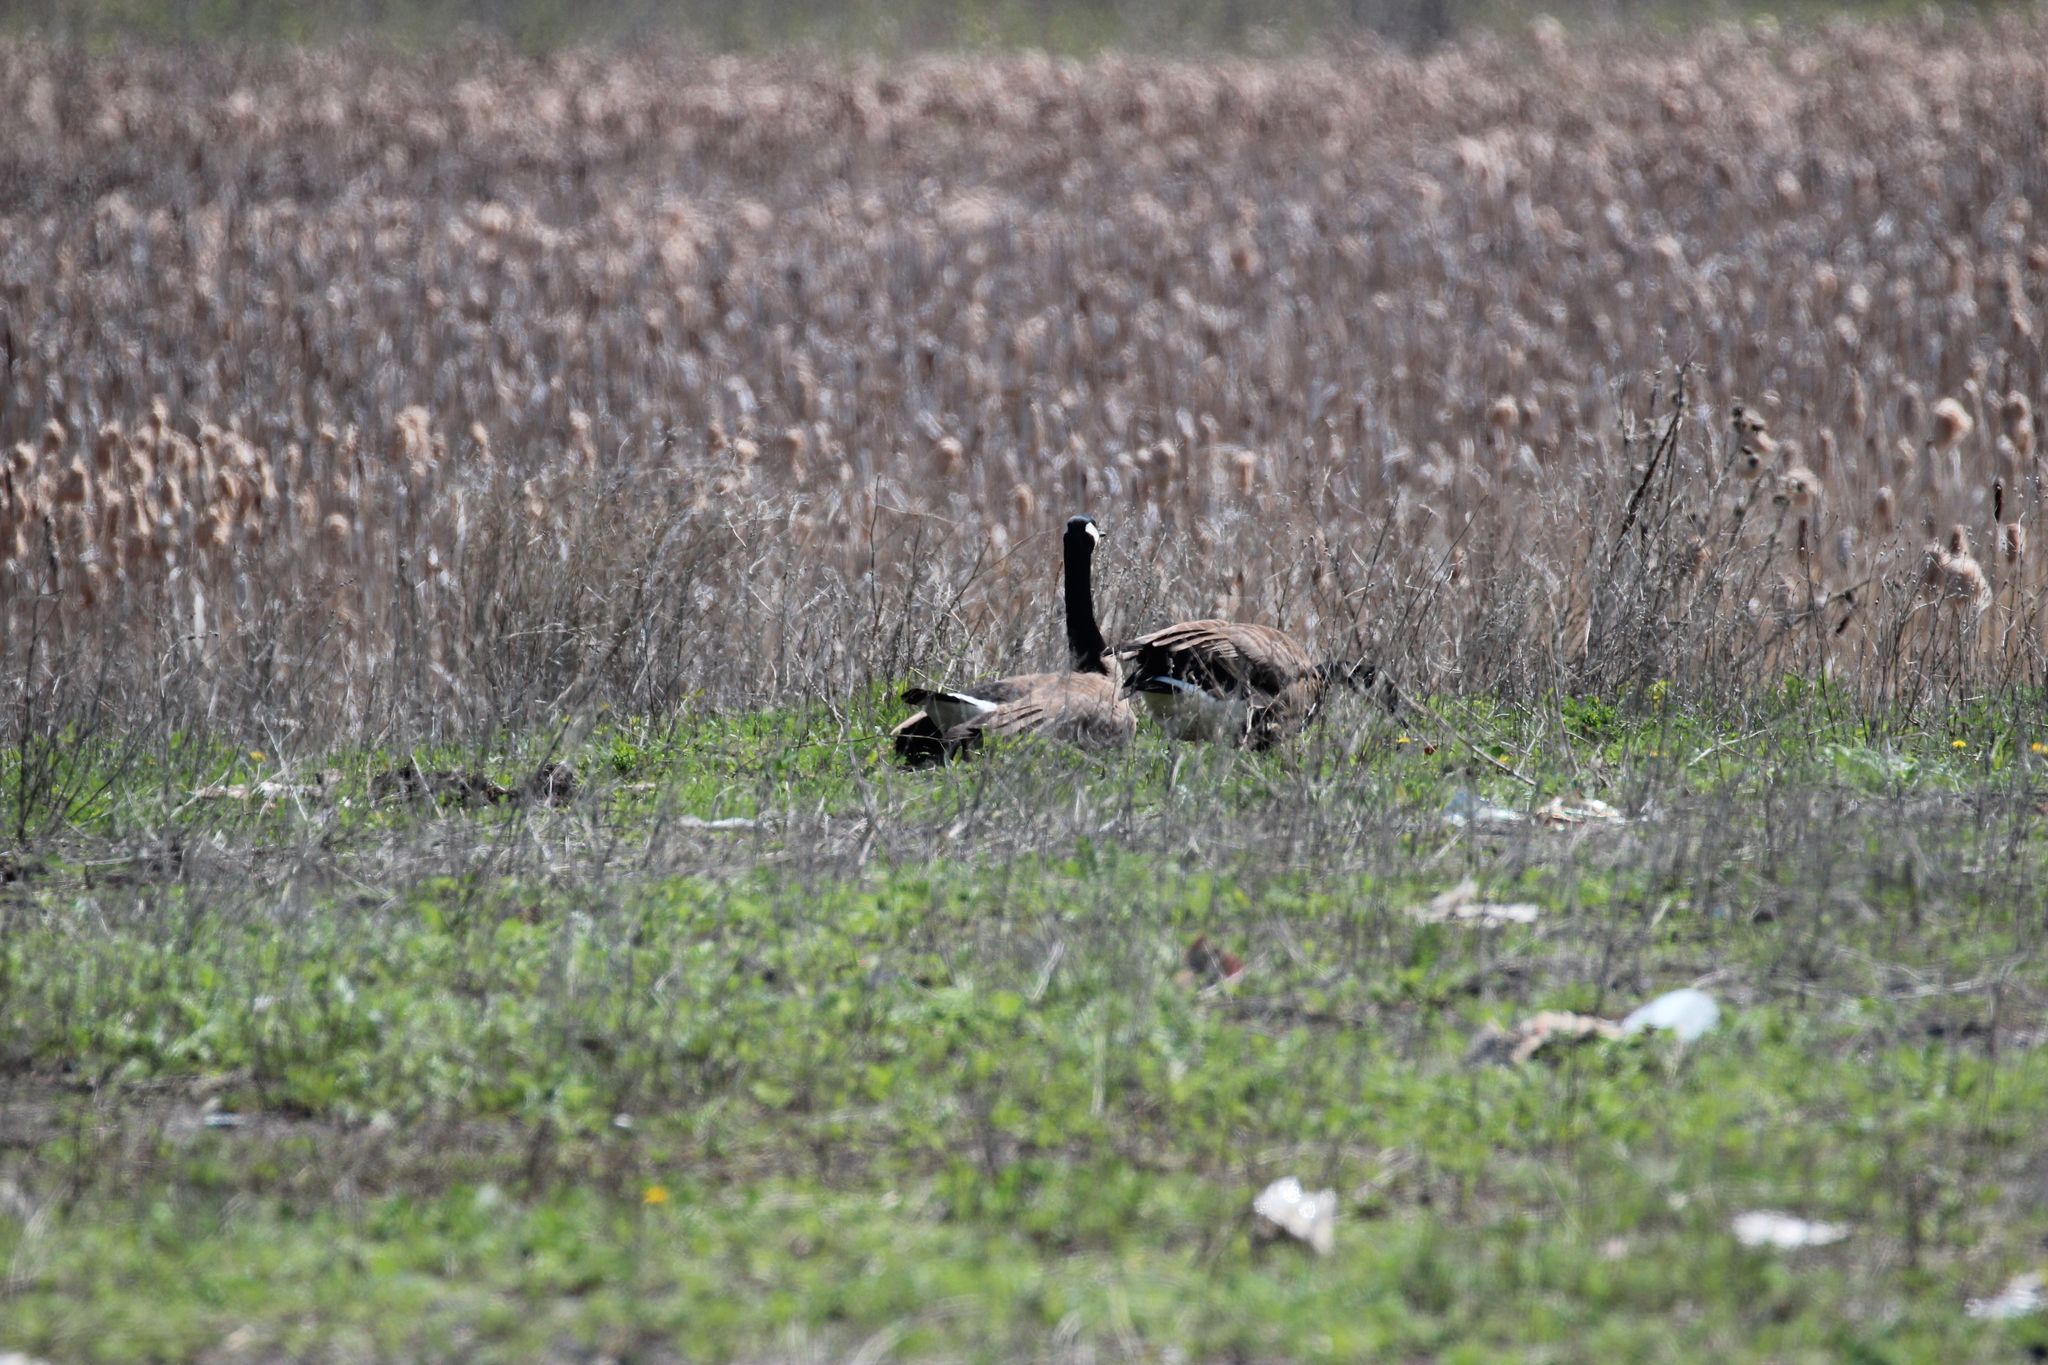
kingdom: Animalia
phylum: Chordata
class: Aves
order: Anseriformes
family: Anatidae
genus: Branta
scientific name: Branta canadensis
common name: Canada goose
